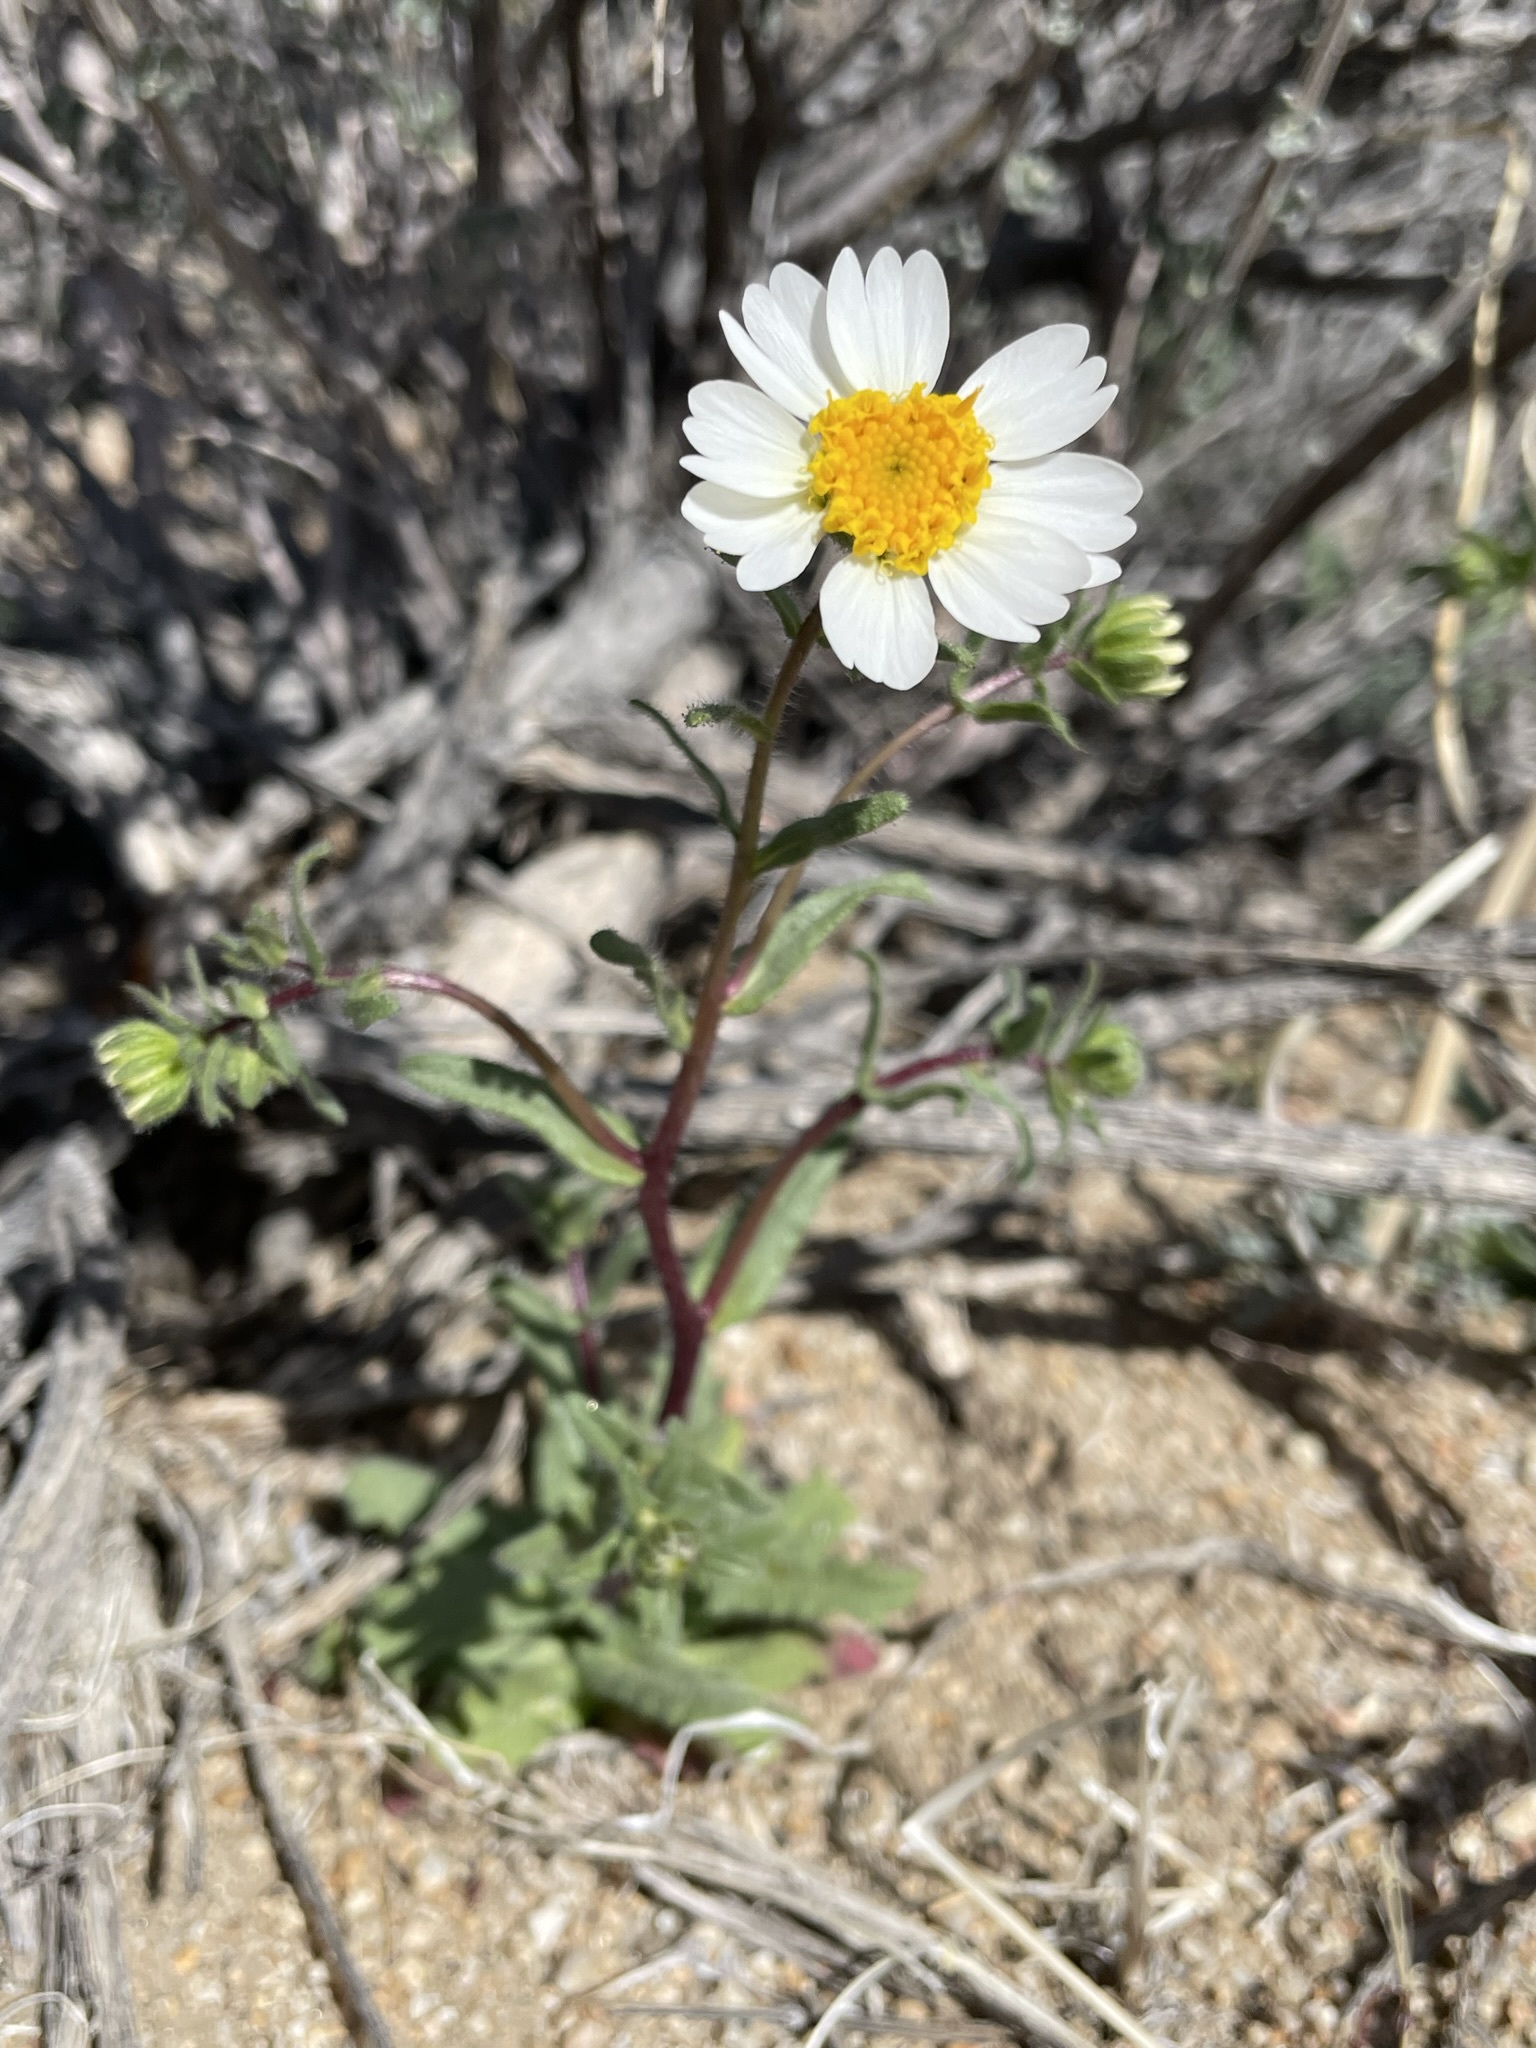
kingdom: Plantae
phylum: Tracheophyta
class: Magnoliopsida
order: Asterales
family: Asteraceae
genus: Layia
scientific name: Layia glandulosa
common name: White layia
